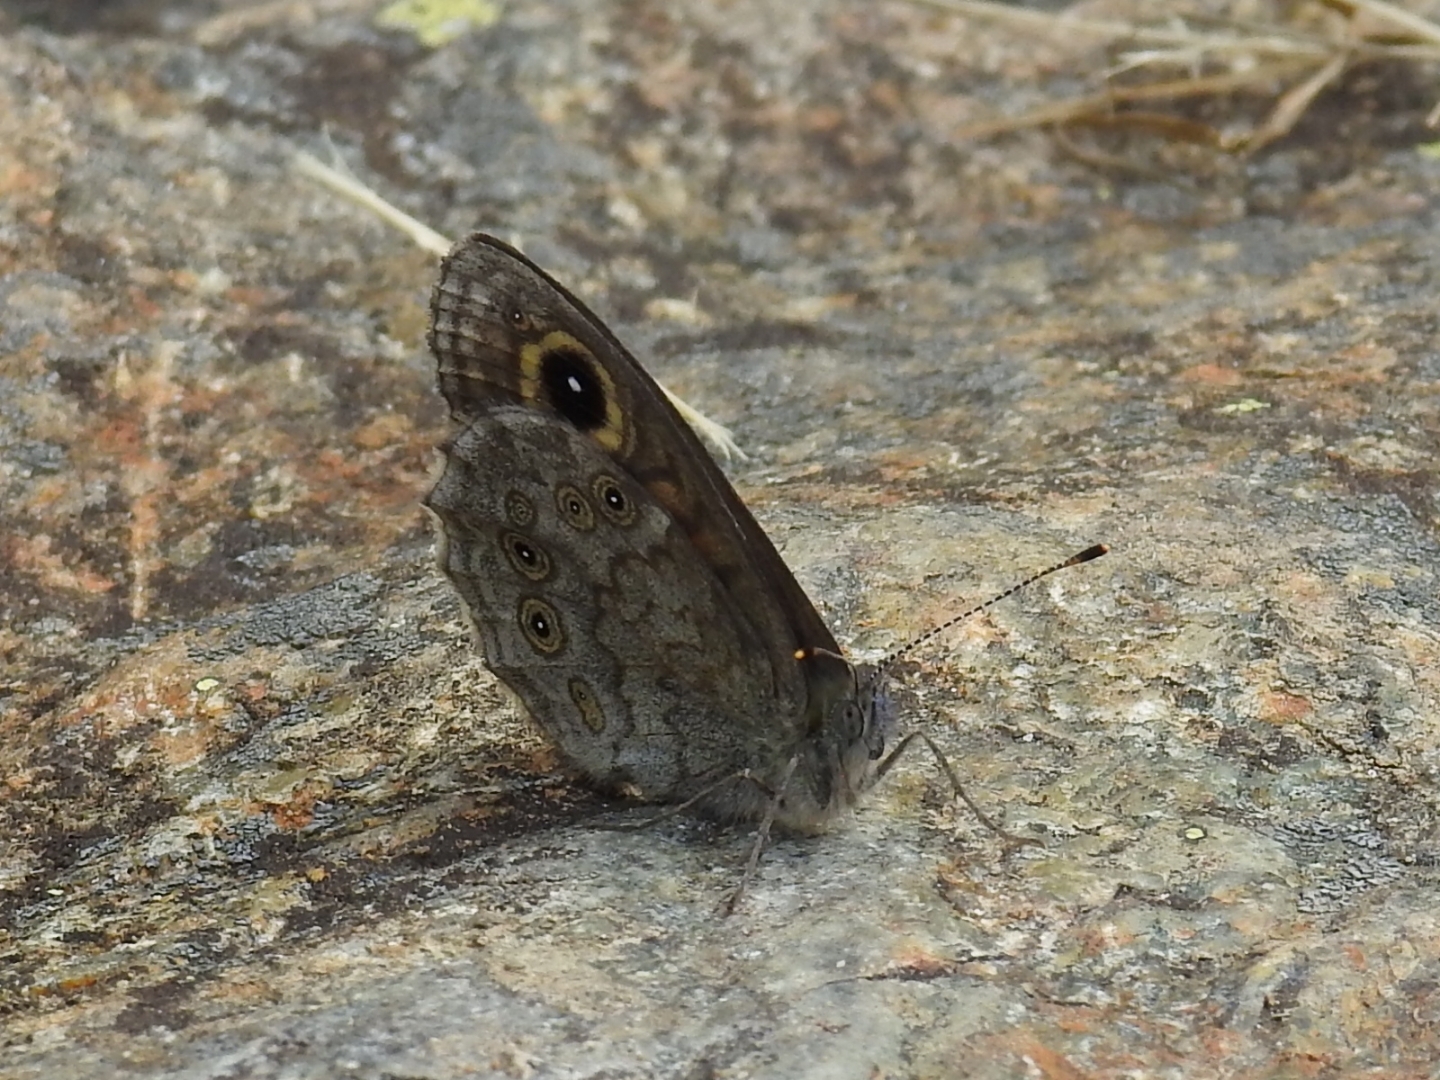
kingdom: Animalia
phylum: Arthropoda
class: Insecta
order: Lepidoptera
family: Nymphalidae
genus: Pararge
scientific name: Pararge Lasiommata maera
